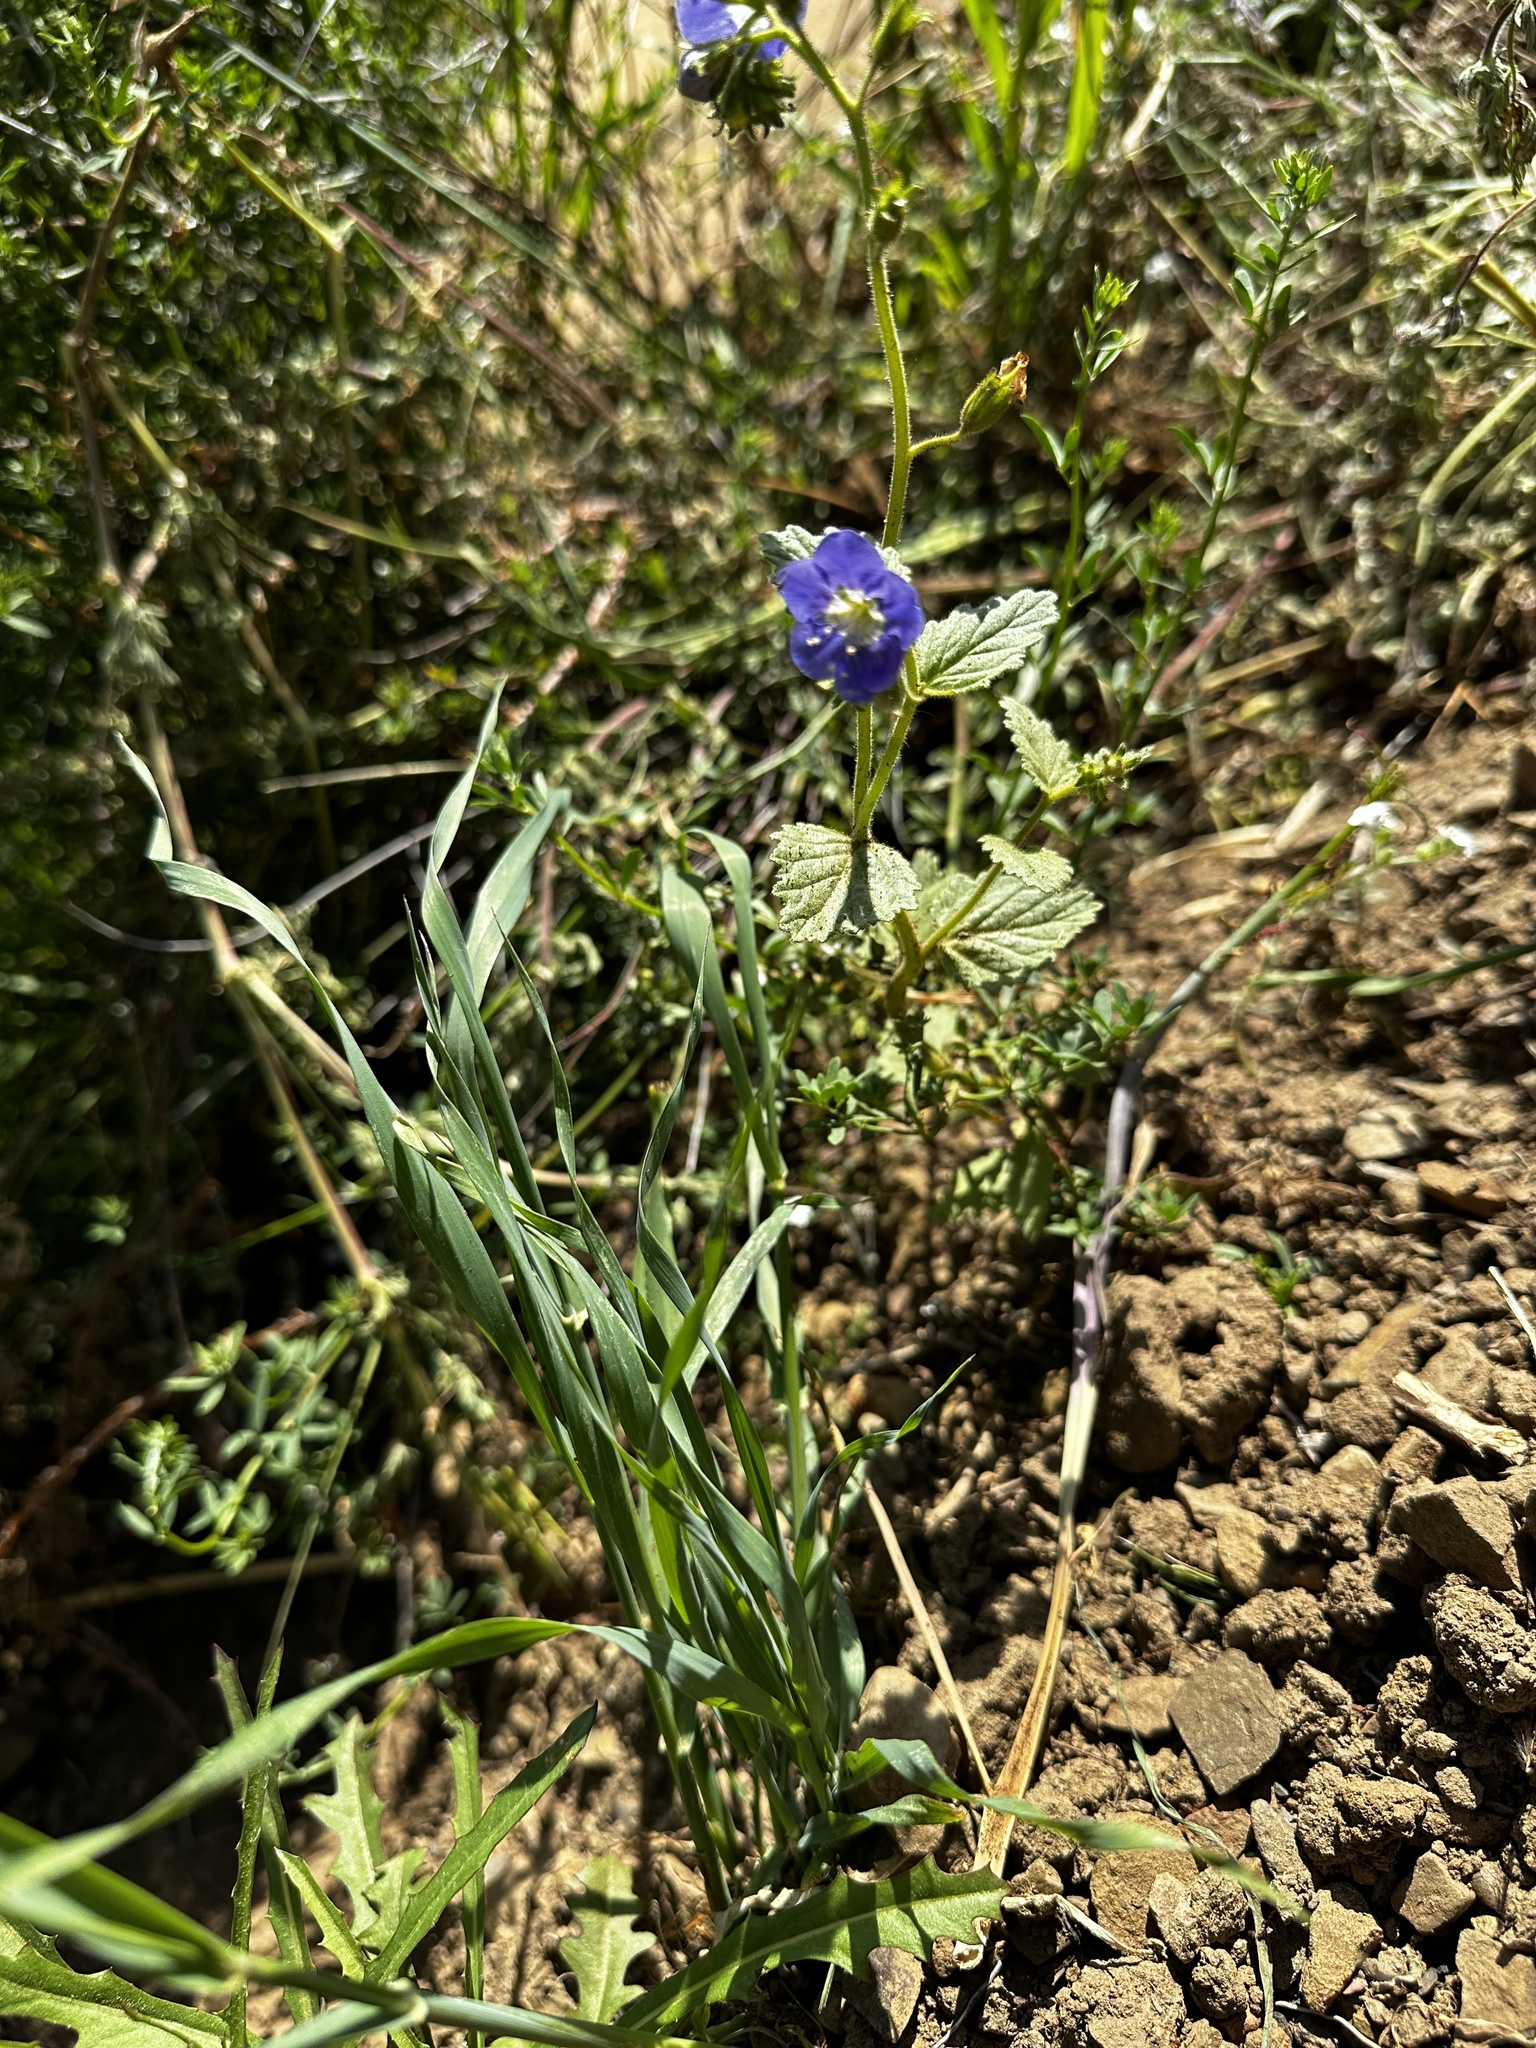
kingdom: Plantae
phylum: Tracheophyta
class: Magnoliopsida
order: Boraginales
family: Hydrophyllaceae
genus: Phacelia
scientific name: Phacelia viscida
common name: Sticky phacelia
